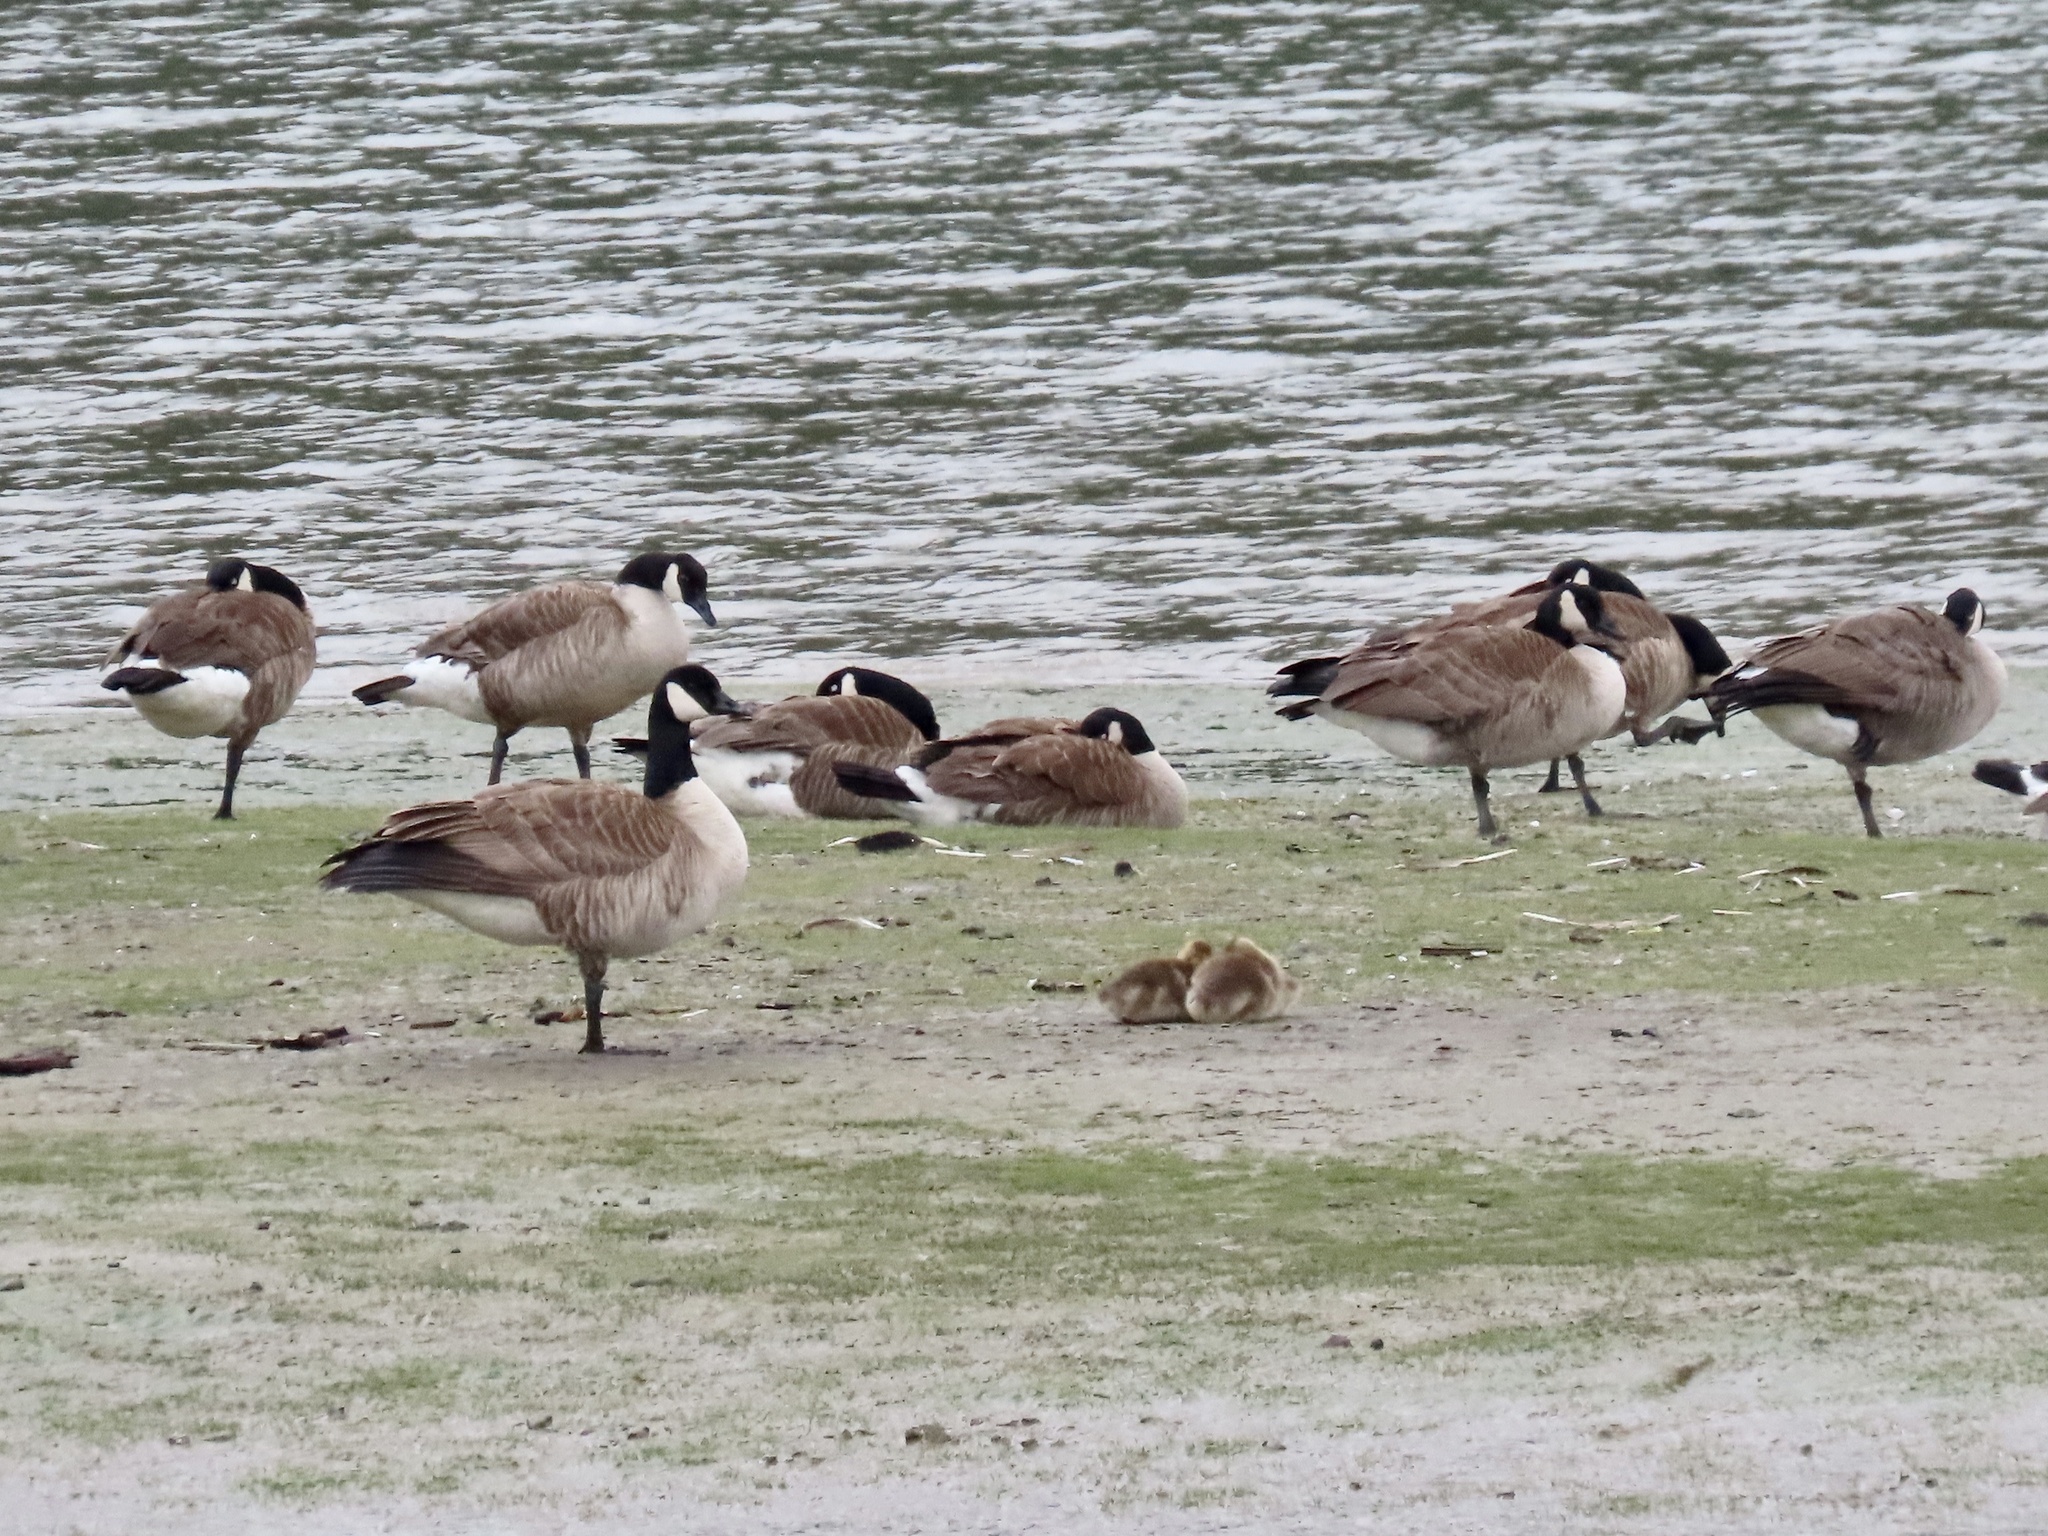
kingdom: Animalia
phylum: Chordata
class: Aves
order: Anseriformes
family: Anatidae
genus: Branta
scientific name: Branta canadensis
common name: Canada goose
